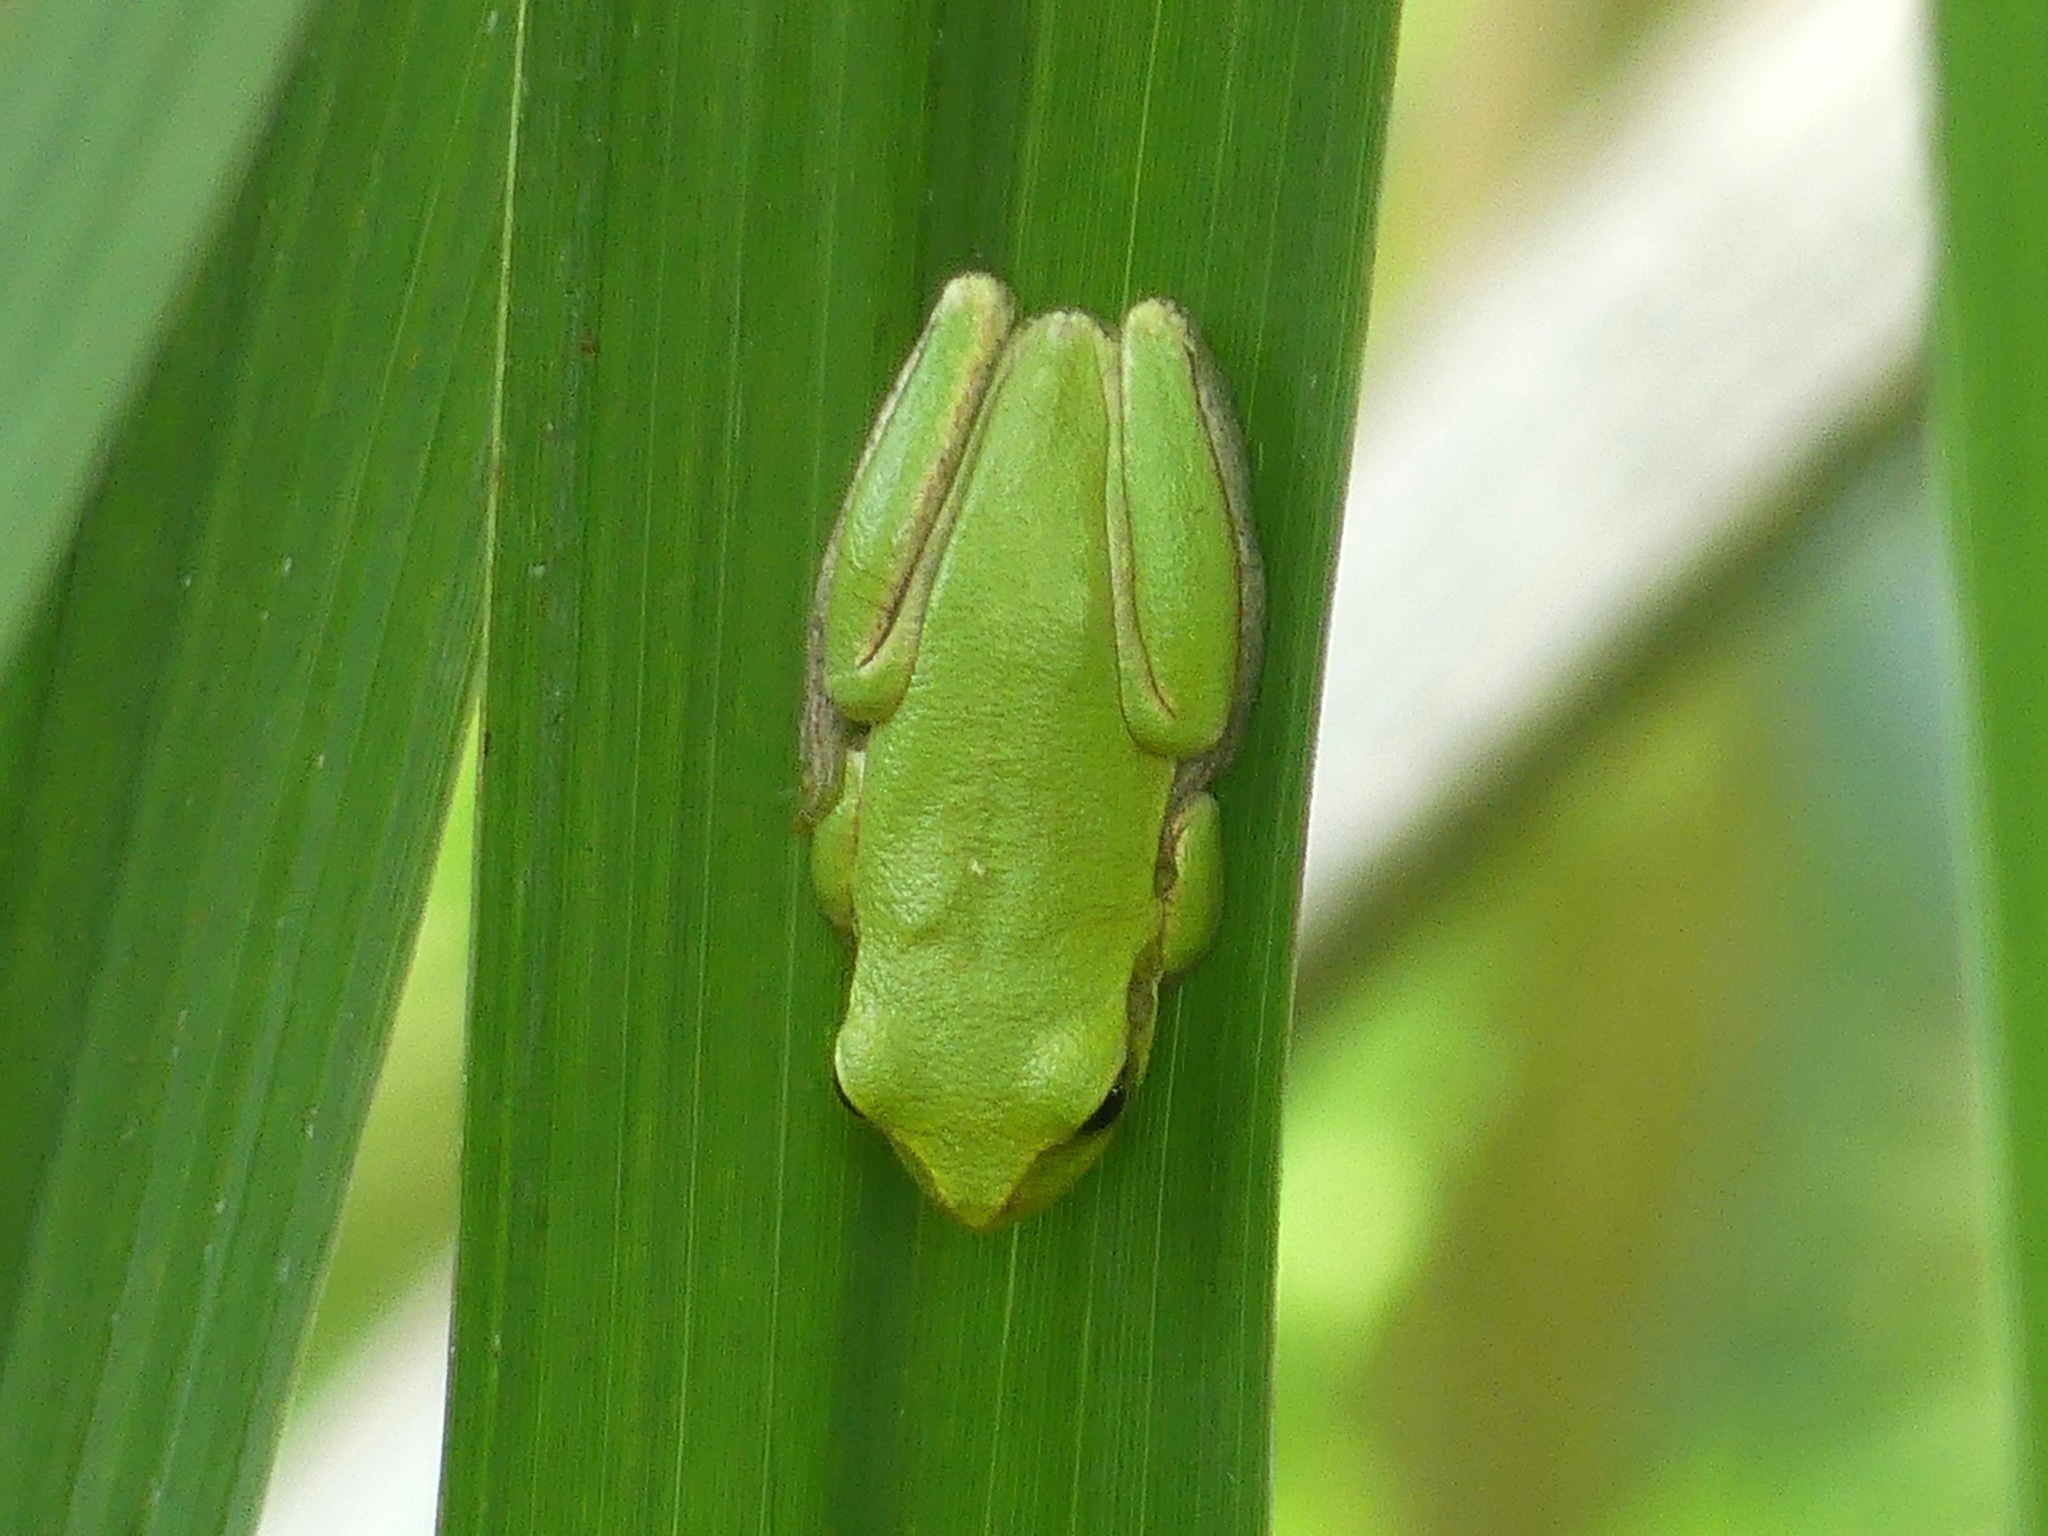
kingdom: Animalia
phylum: Chordata
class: Amphibia
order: Anura
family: Hylidae
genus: Dryophytes
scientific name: Dryophytes squirellus
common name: Squirrel treefrog
